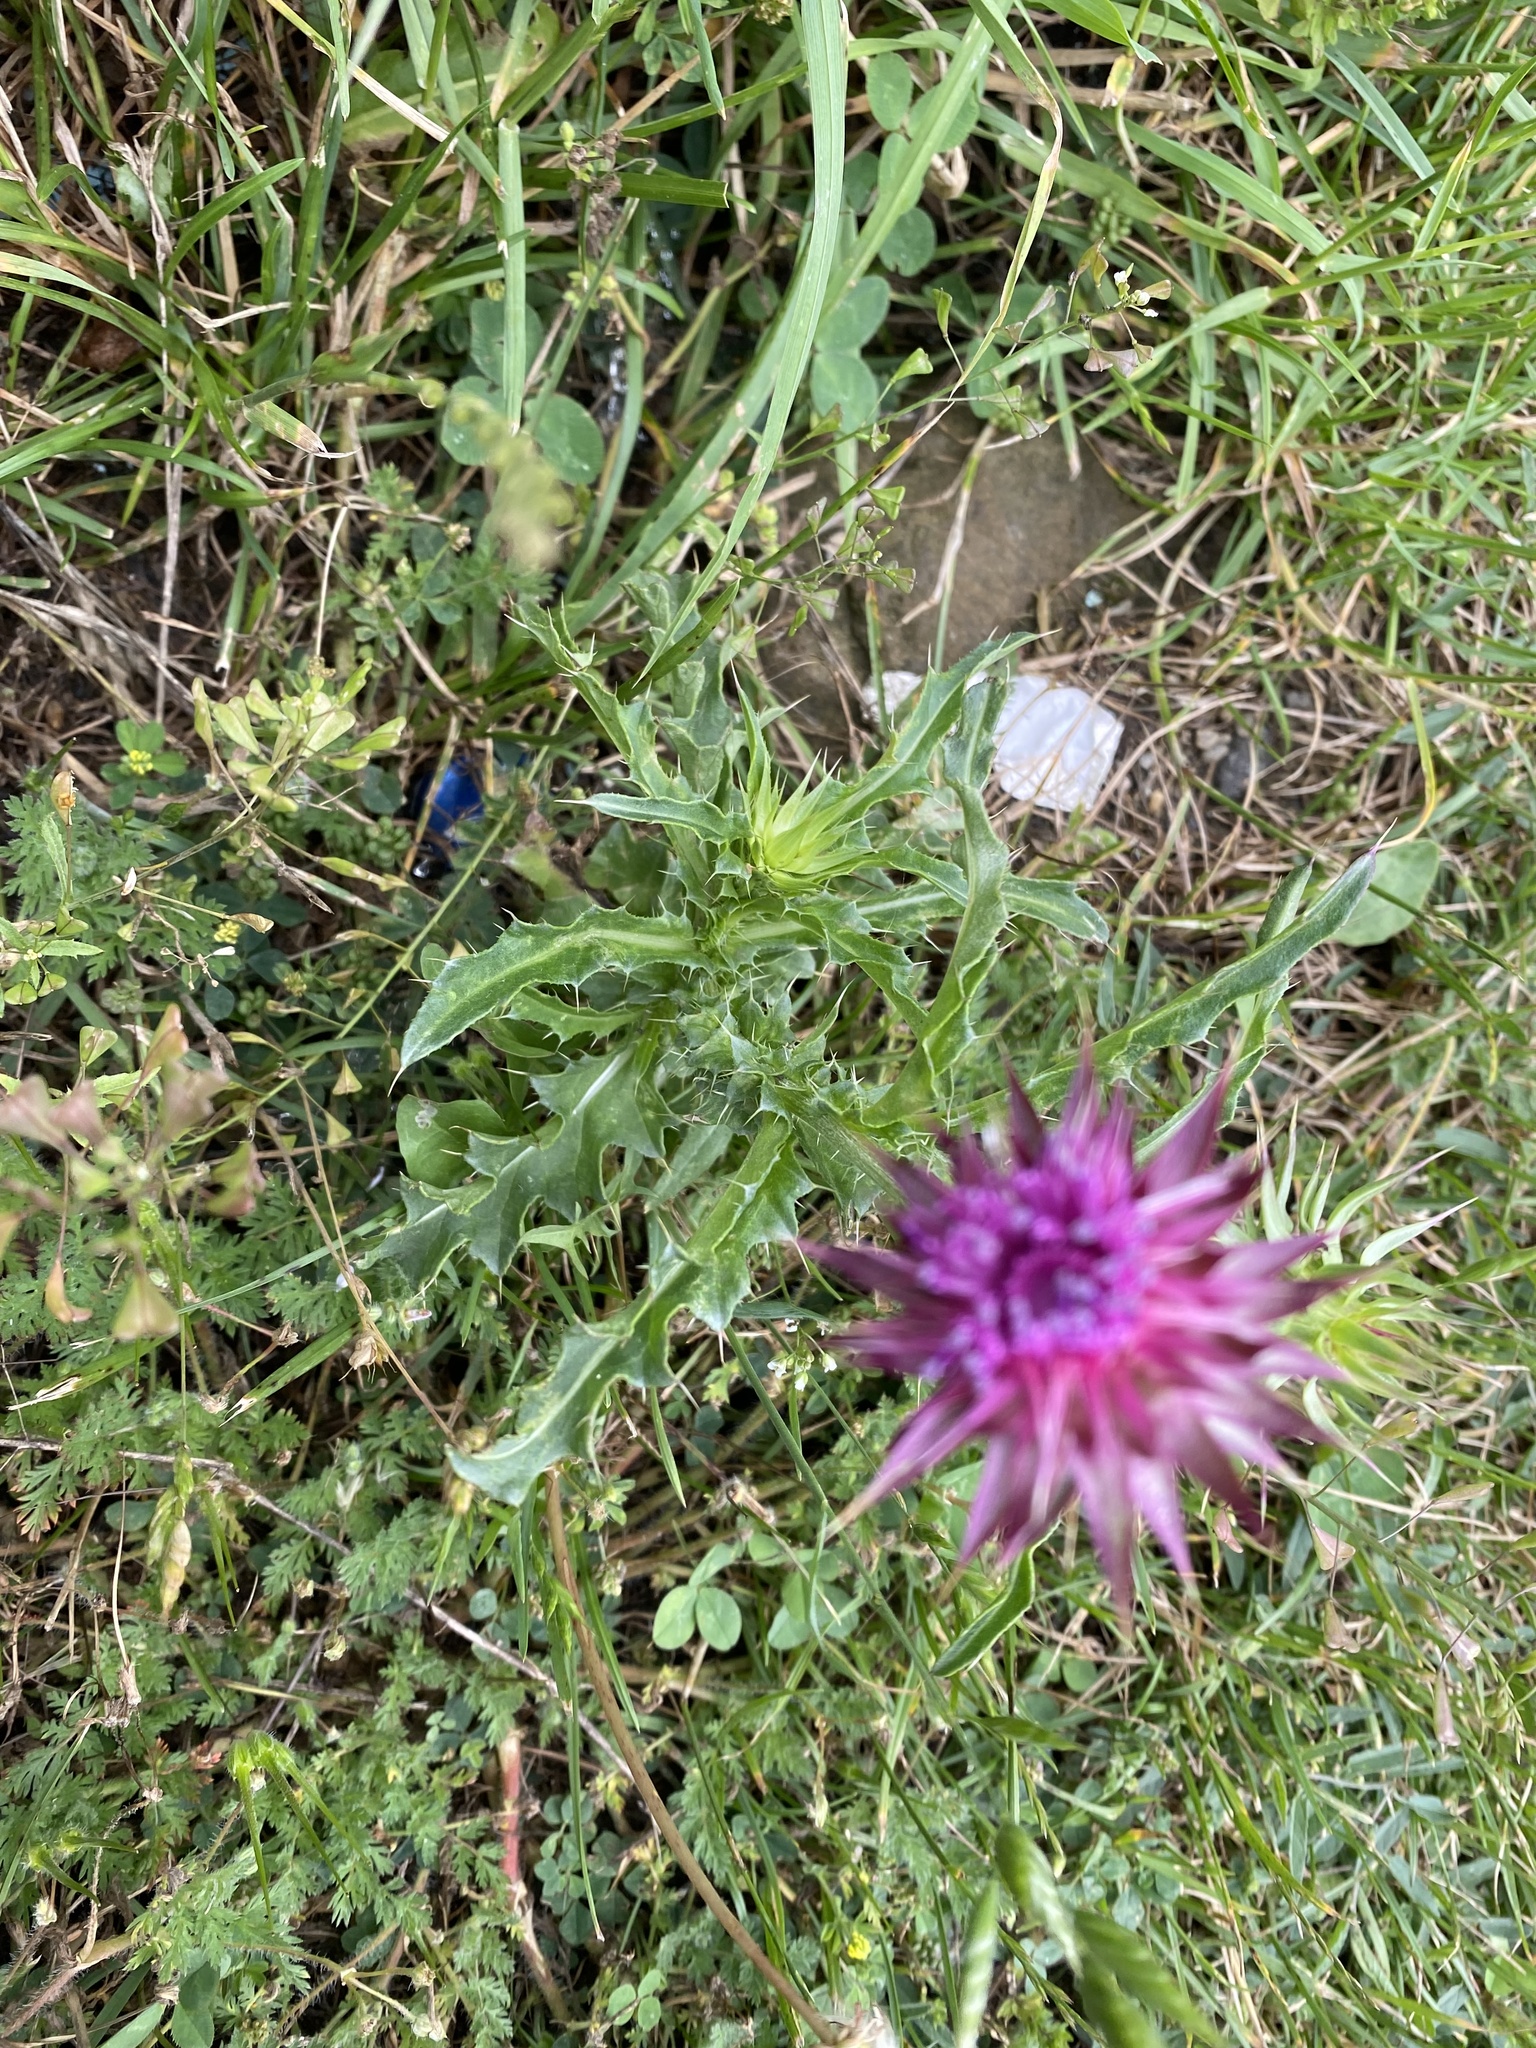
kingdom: Plantae
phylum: Tracheophyta
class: Magnoliopsida
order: Asterales
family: Asteraceae
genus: Carduus
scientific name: Carduus nutans
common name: Musk thistle
